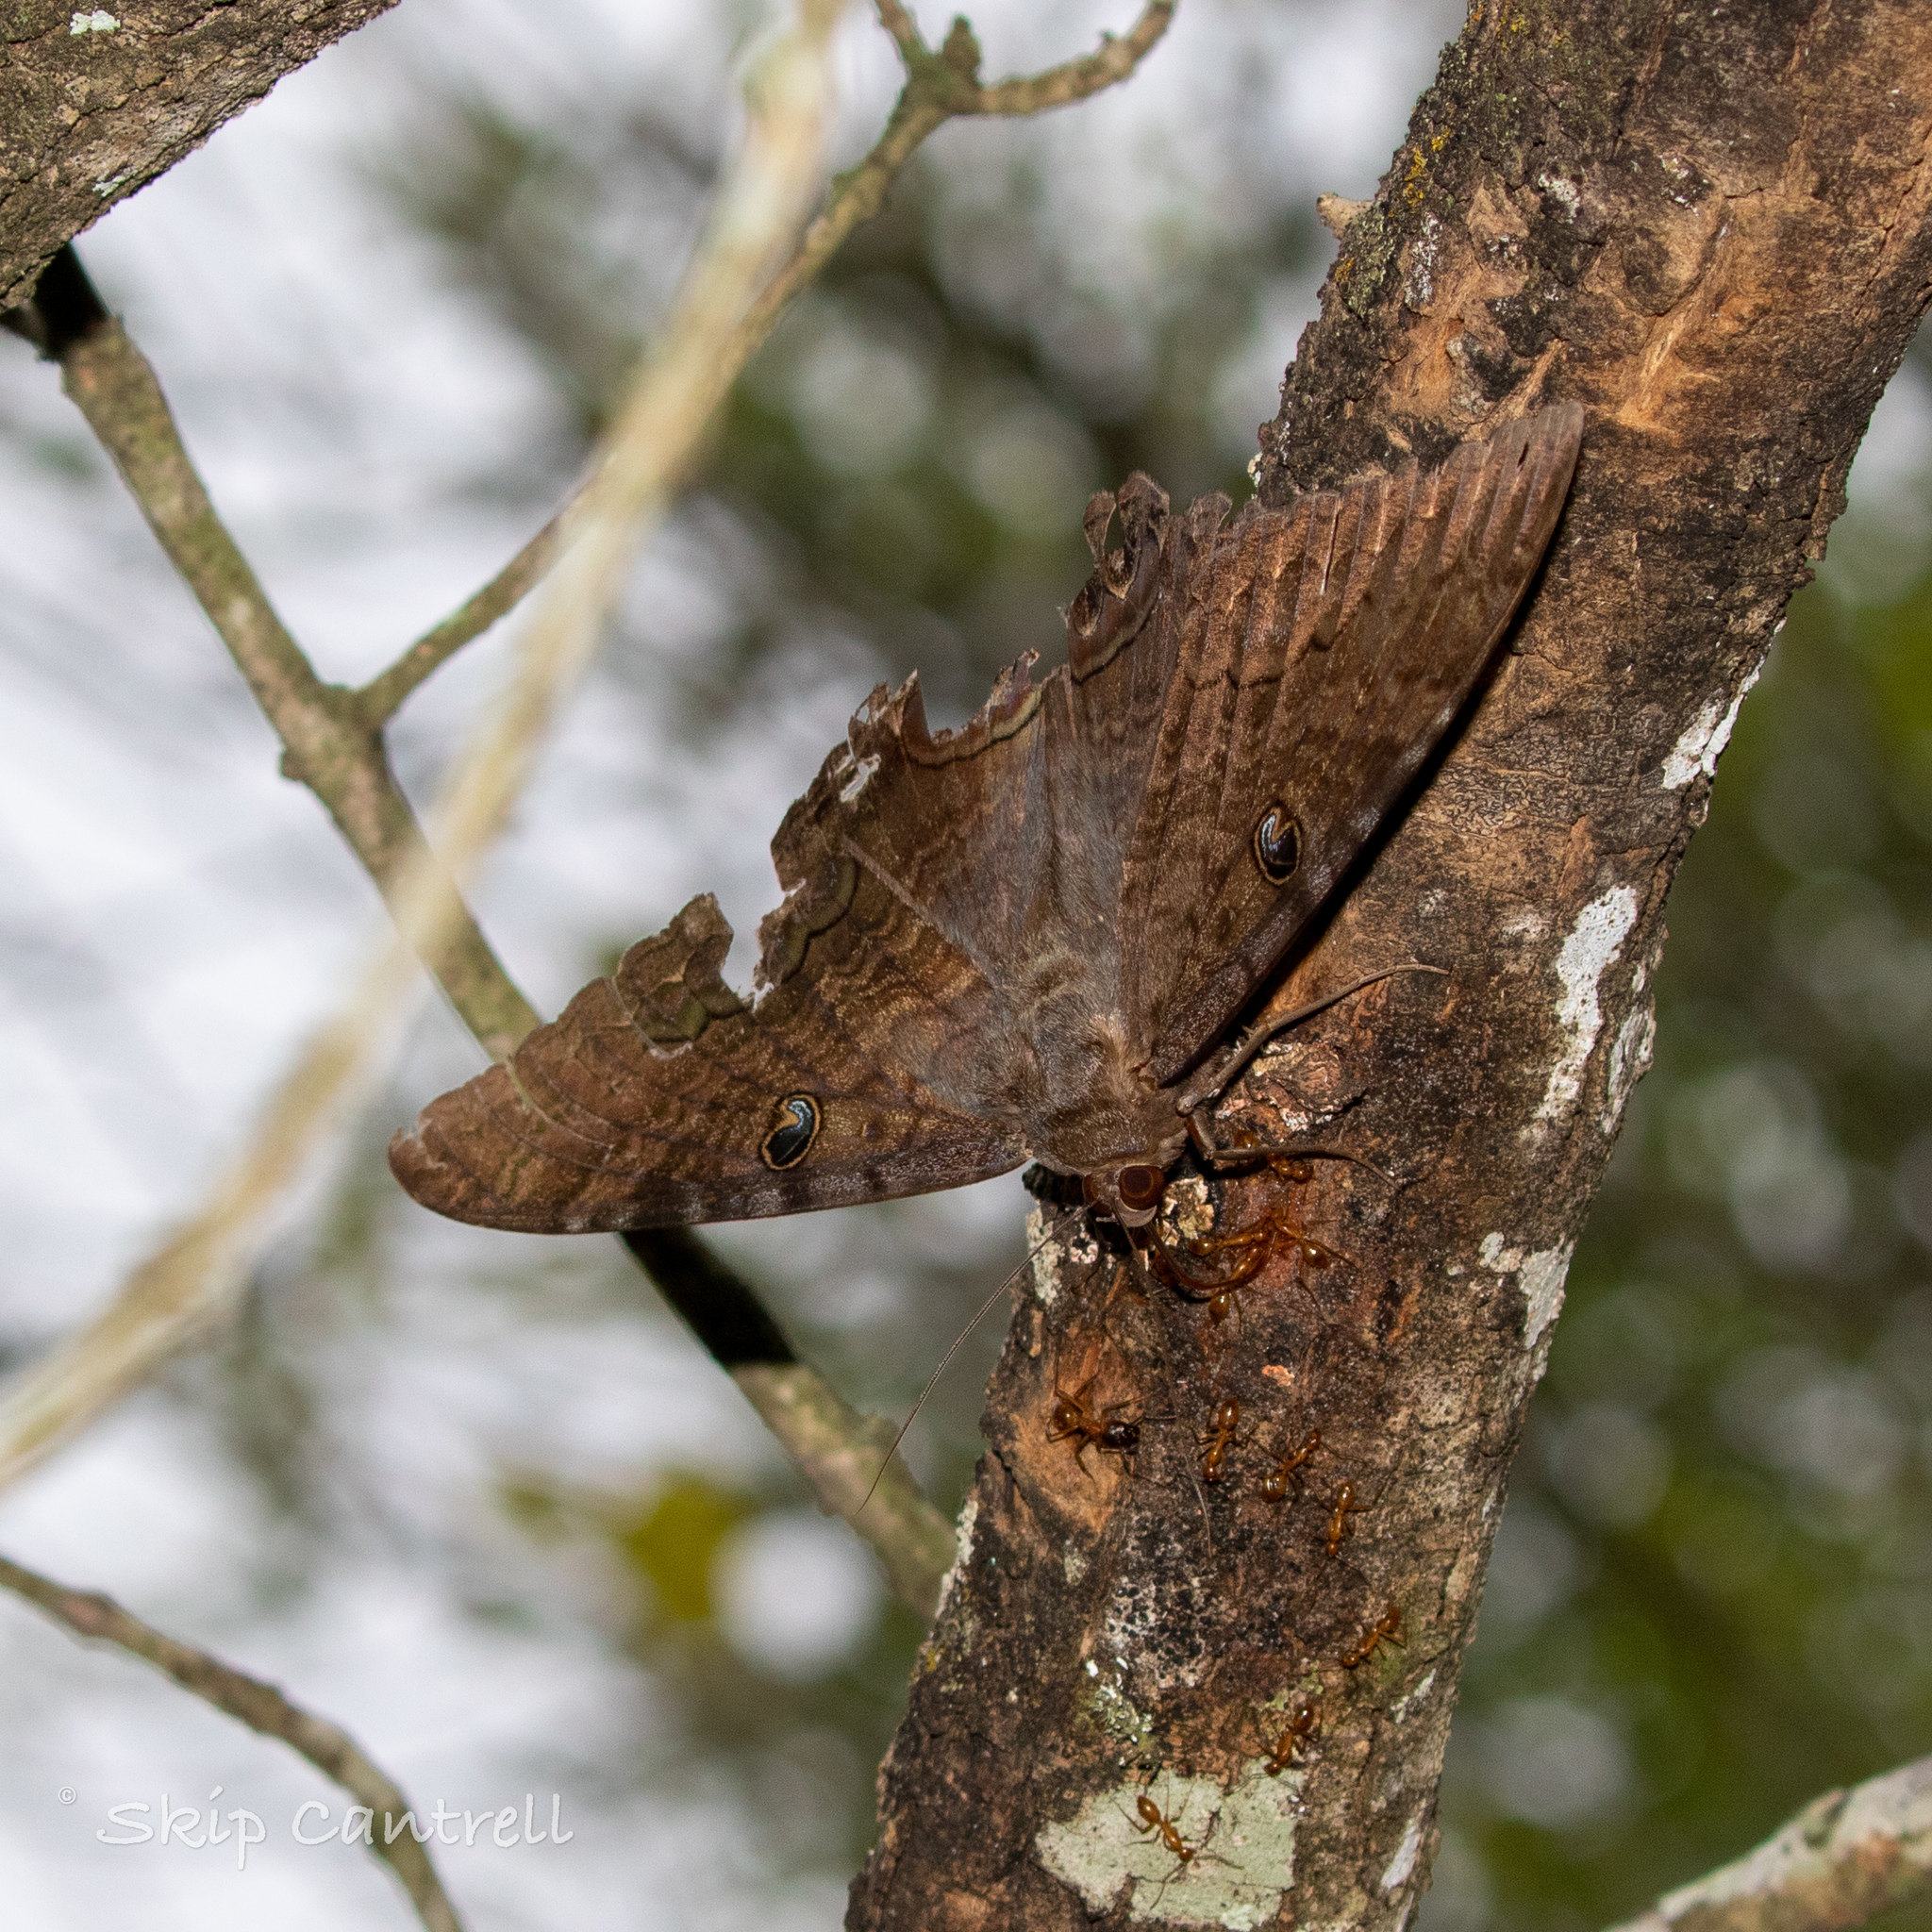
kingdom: Animalia
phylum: Arthropoda
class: Insecta
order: Lepidoptera
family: Erebidae
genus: Ascalapha
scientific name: Ascalapha odorata
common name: Black witch
